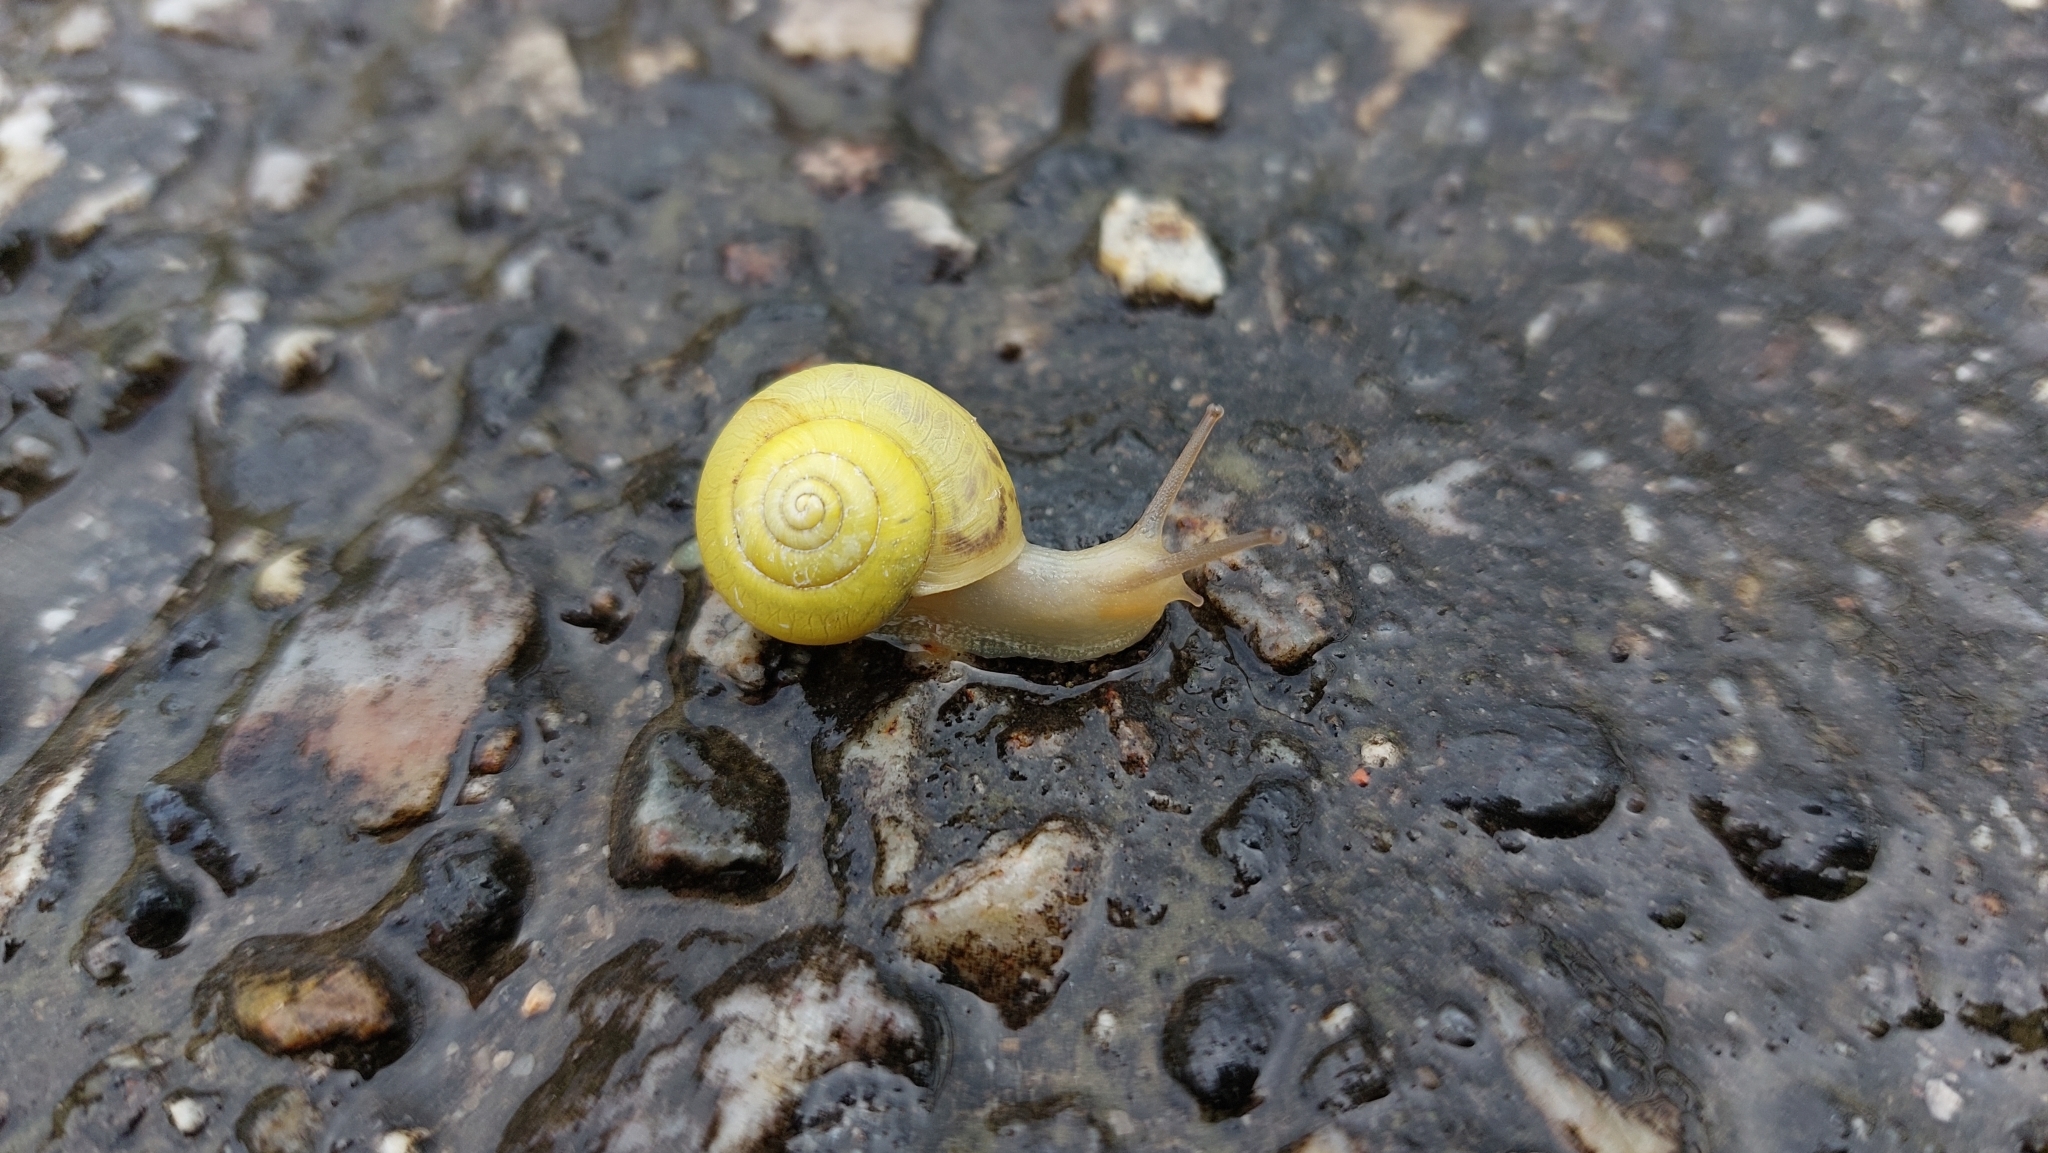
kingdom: Animalia
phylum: Mollusca
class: Gastropoda
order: Stylommatophora
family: Camaenidae
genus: Fruticicola
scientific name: Fruticicola fruticum
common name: Bush snail
